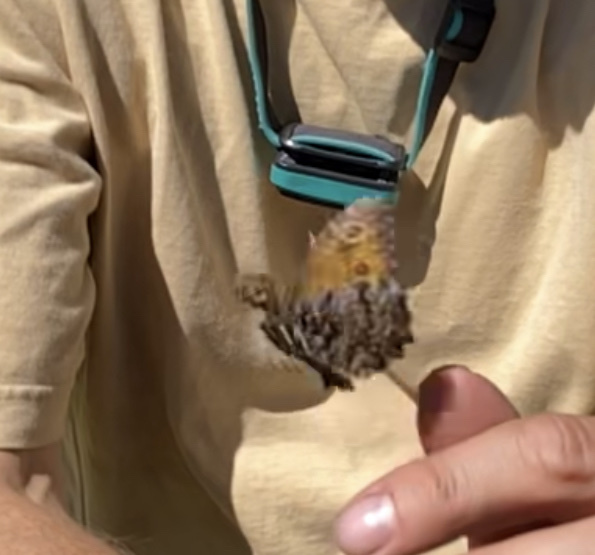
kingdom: Animalia
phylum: Arthropoda
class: Insecta
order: Lepidoptera
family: Nymphalidae
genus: Oeneis
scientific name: Oeneis nevadensis
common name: Great arctic
